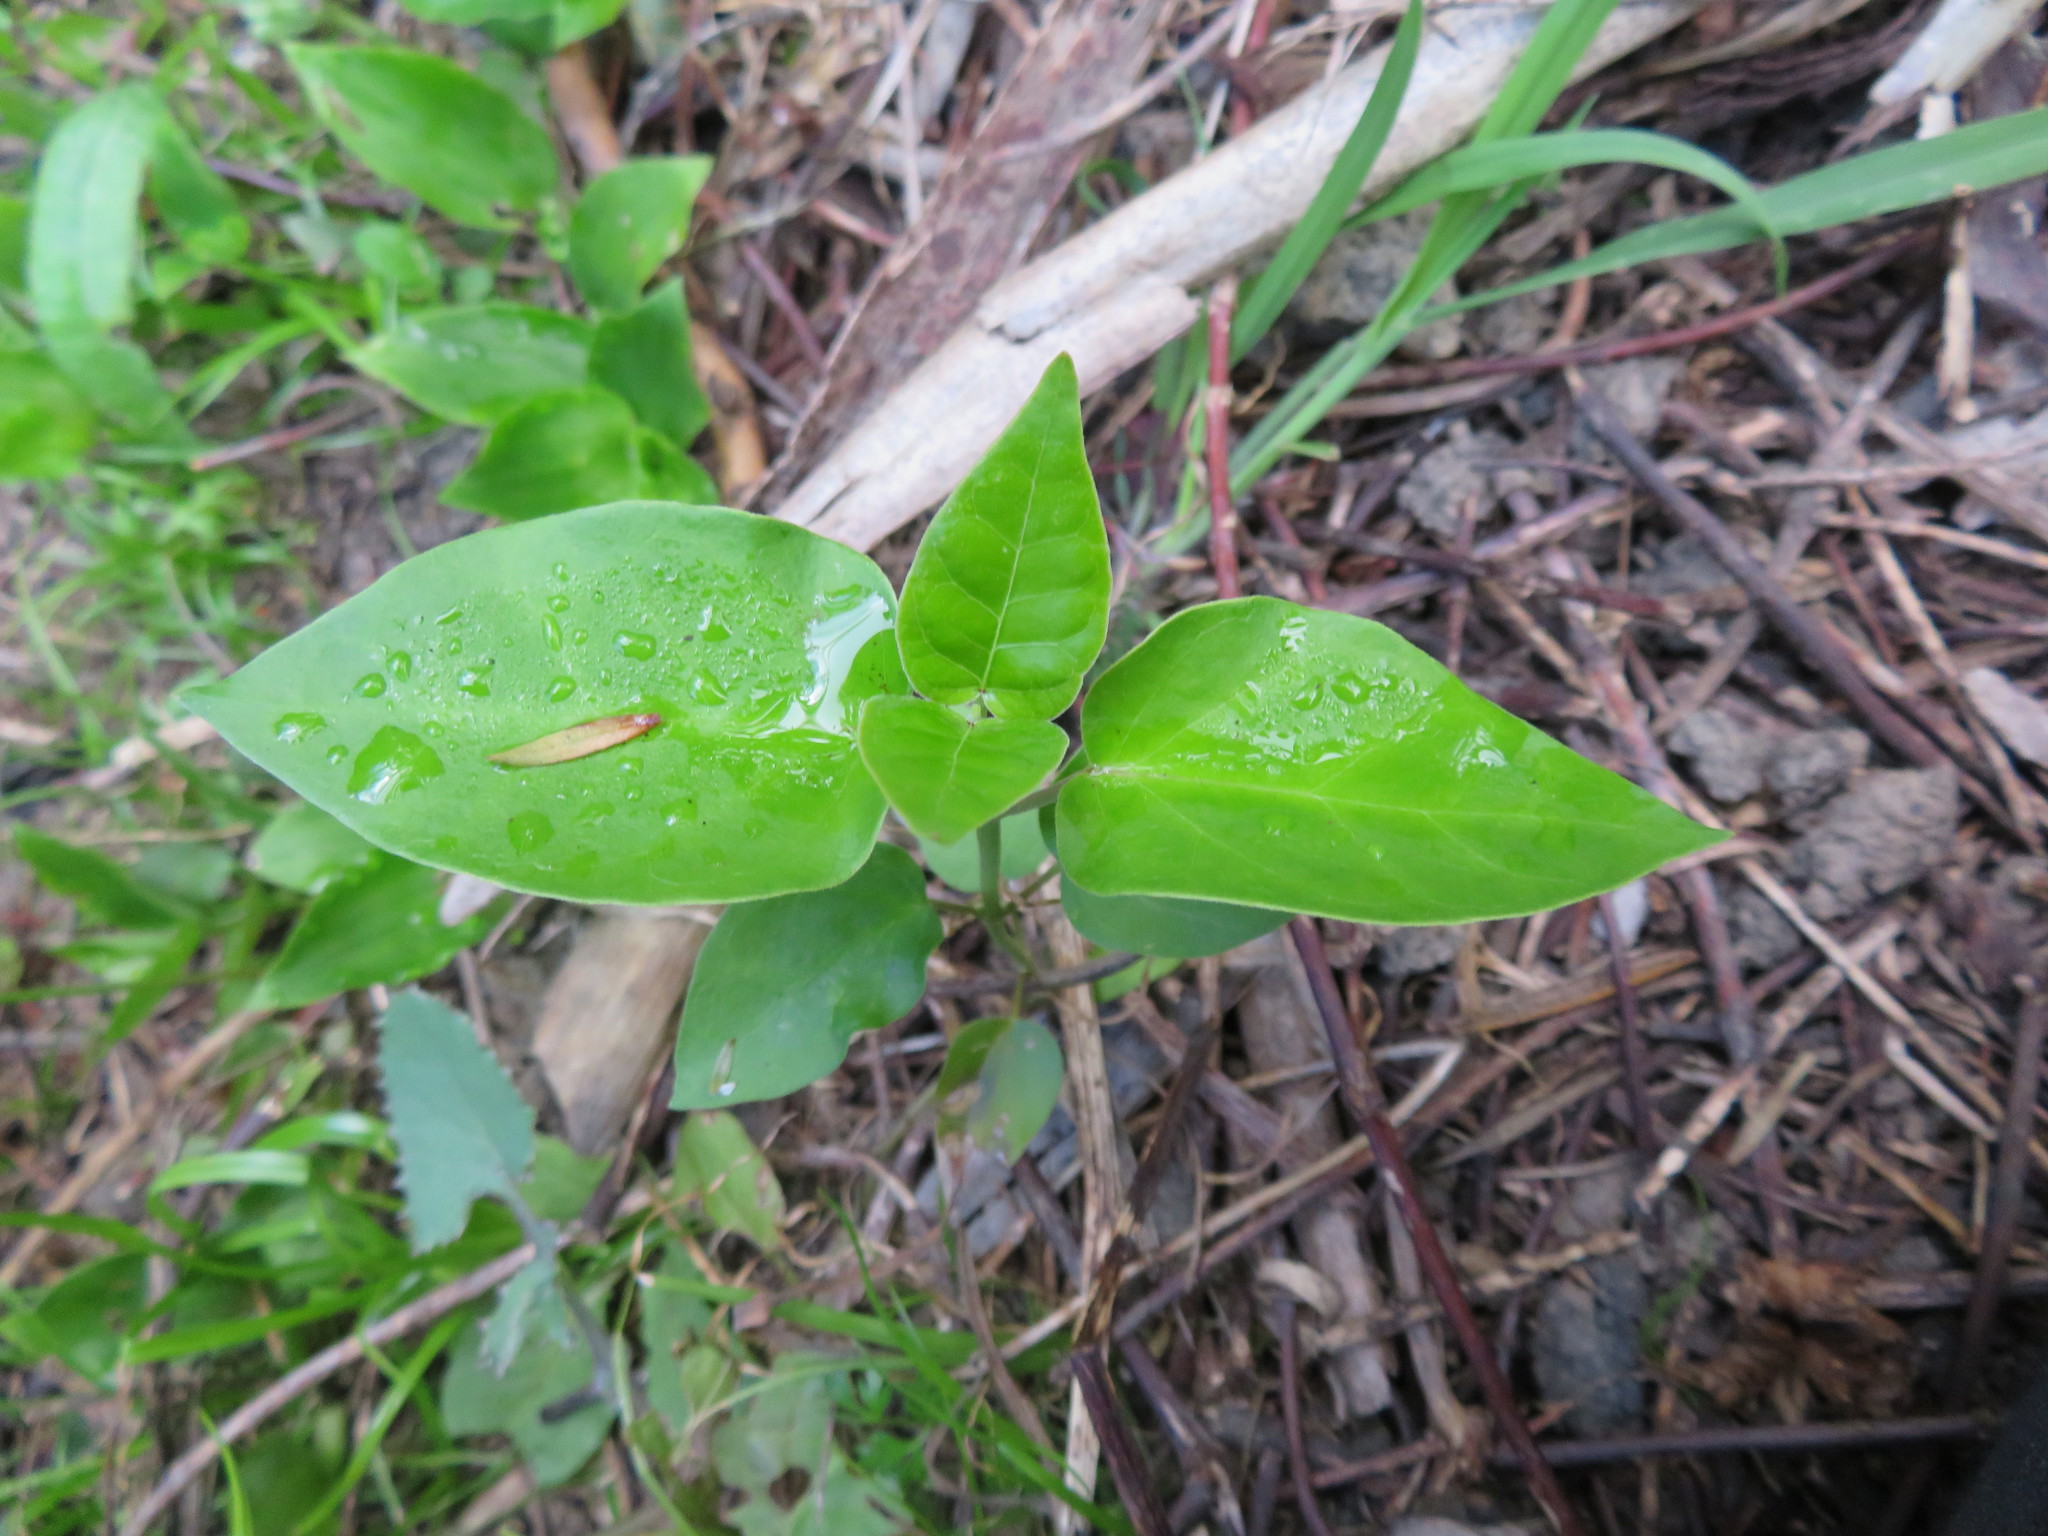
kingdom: Plantae
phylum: Tracheophyta
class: Magnoliopsida
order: Gentianales
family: Apocynaceae
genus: Araujia
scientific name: Araujia sericifera
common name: White bladderflower
